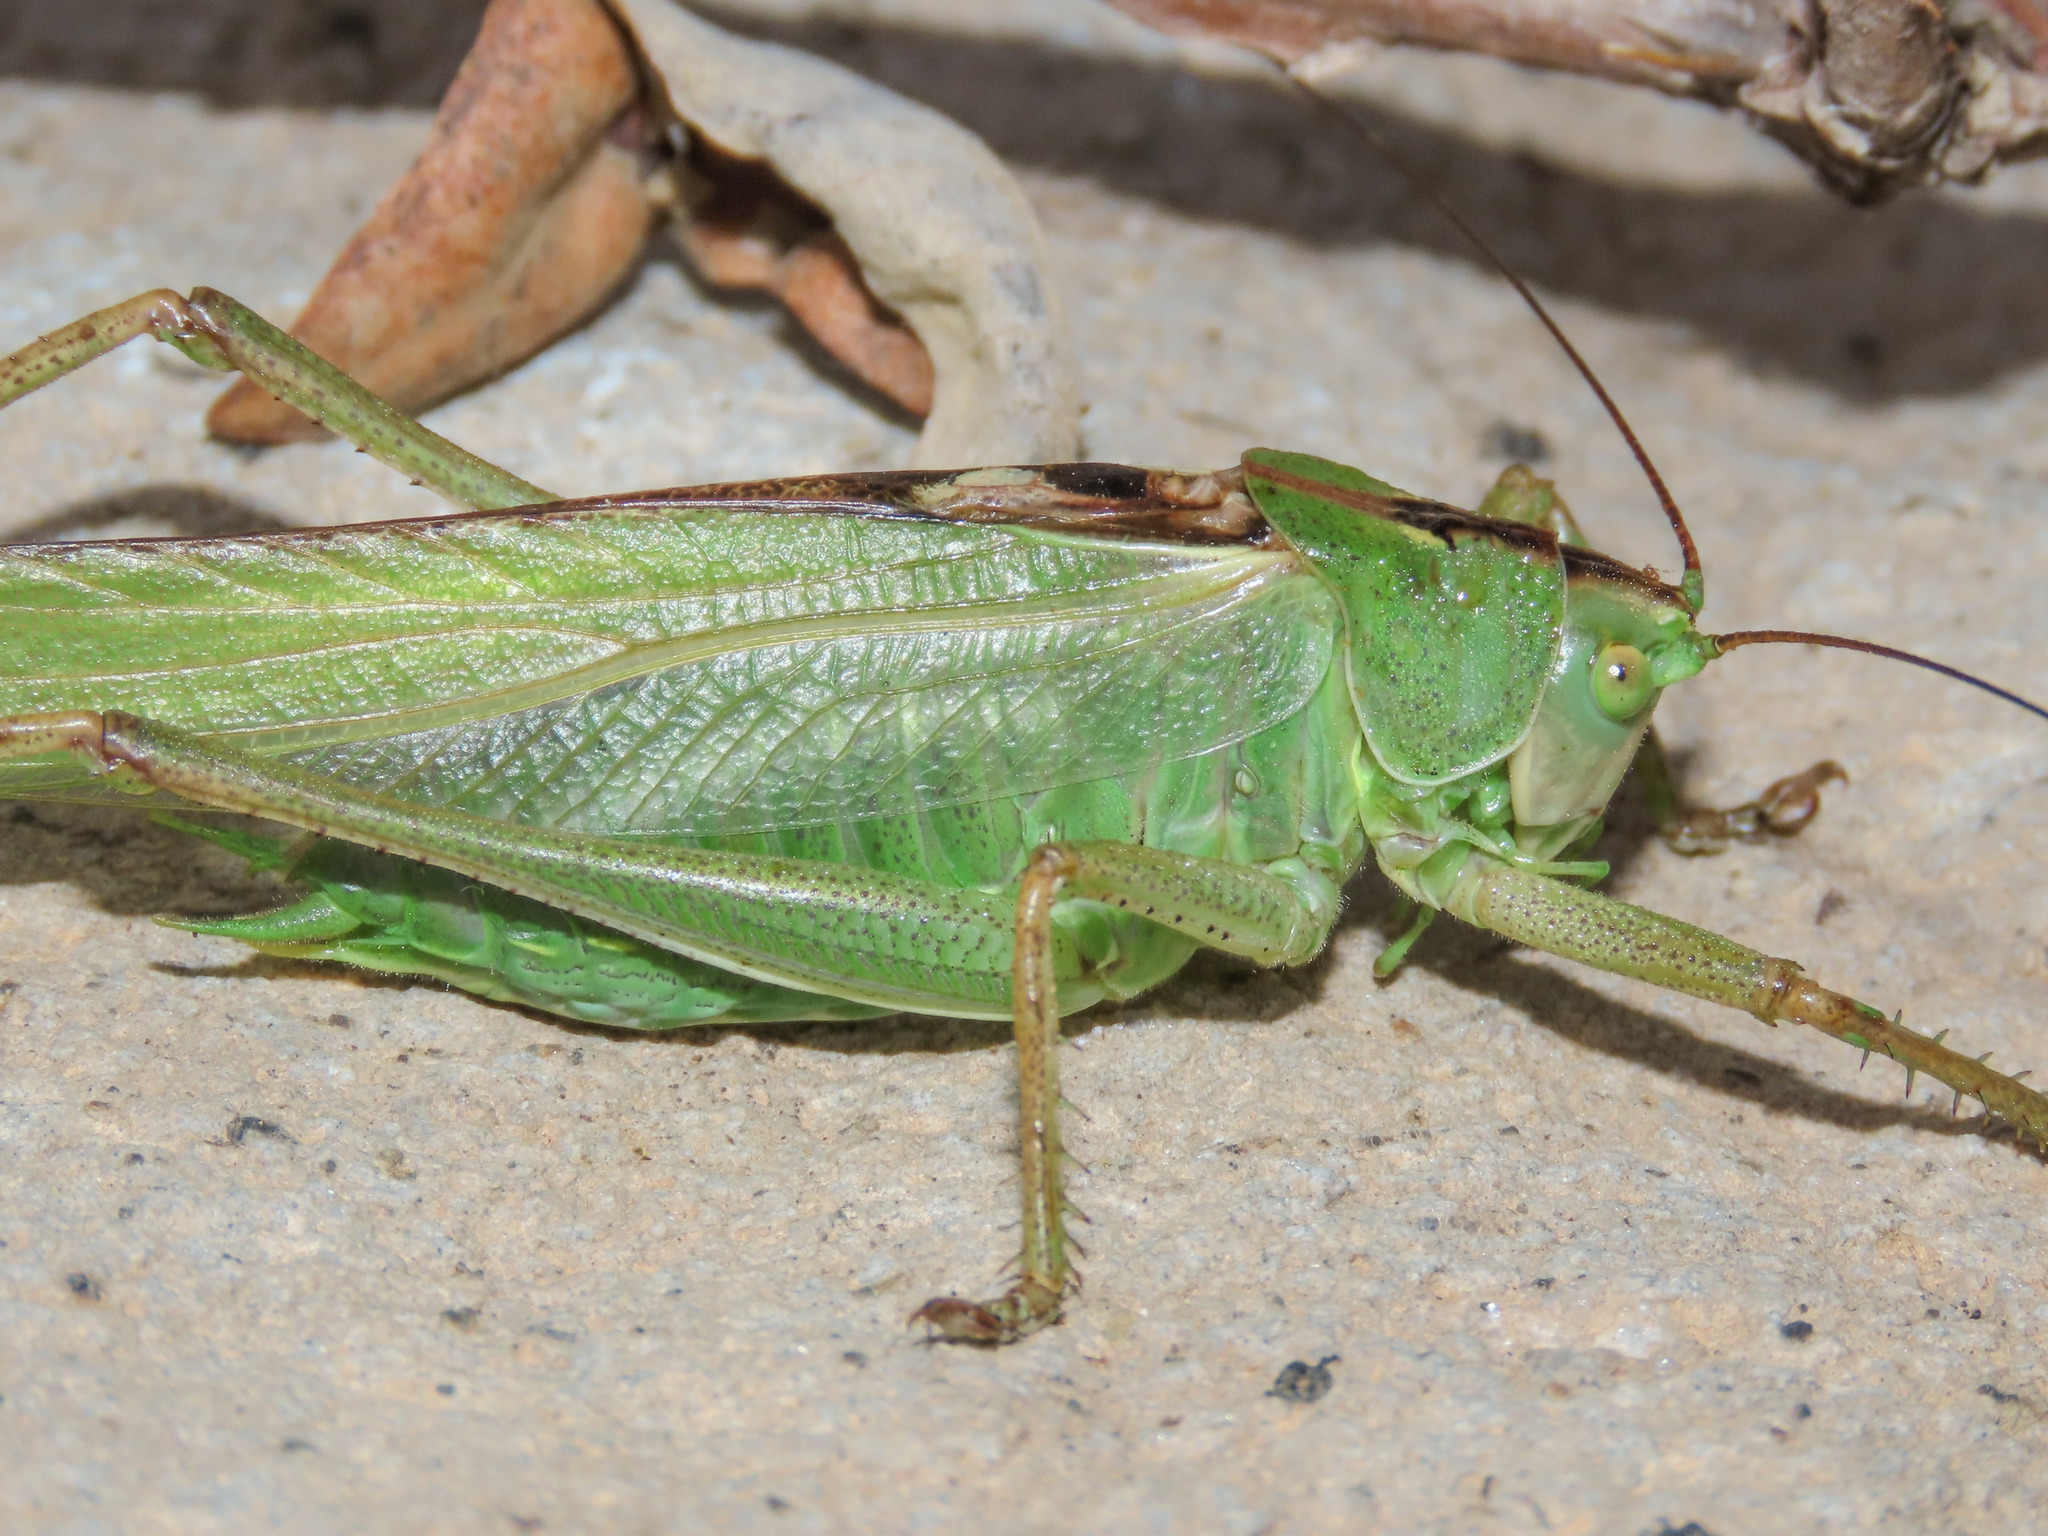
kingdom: Animalia
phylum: Arthropoda
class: Insecta
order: Orthoptera
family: Tettigoniidae
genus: Tettigonia
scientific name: Tettigonia viridissima
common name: Great green bush-cricket
